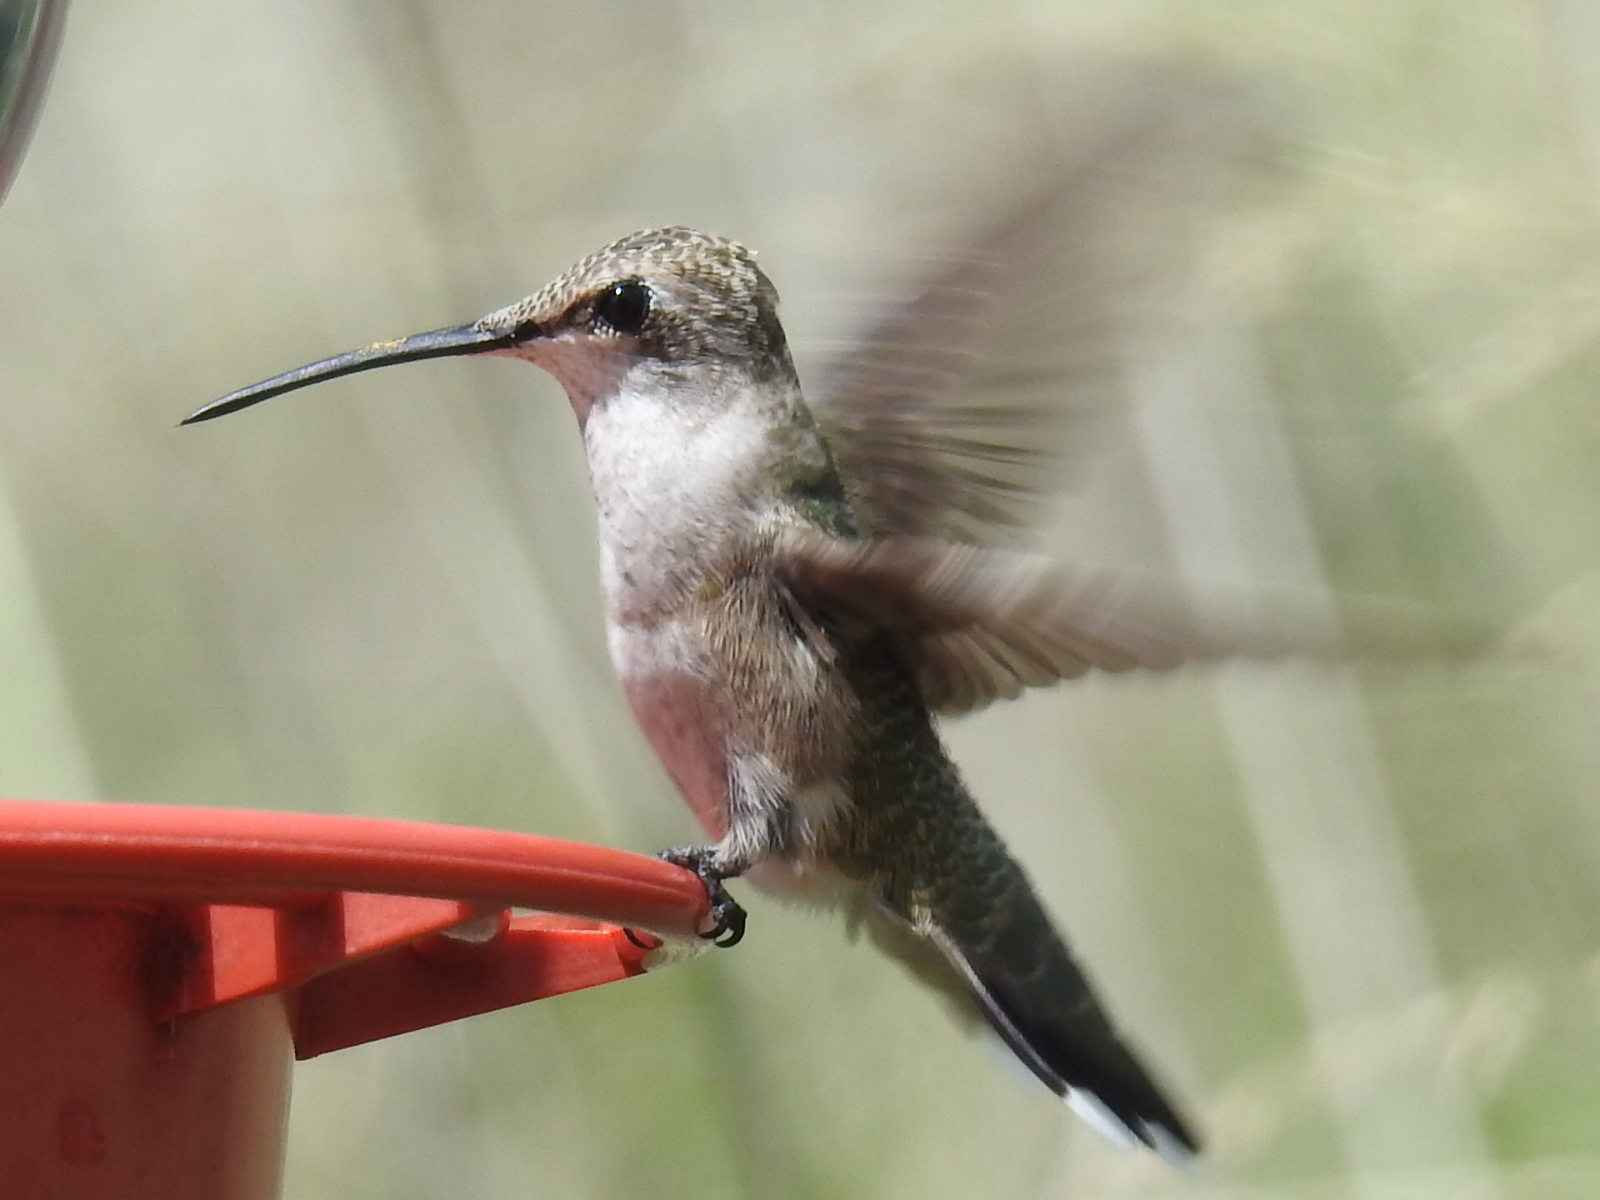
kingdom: Animalia
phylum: Chordata
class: Aves
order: Apodiformes
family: Trochilidae
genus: Archilochus
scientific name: Archilochus alexandri
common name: Black-chinned hummingbird
